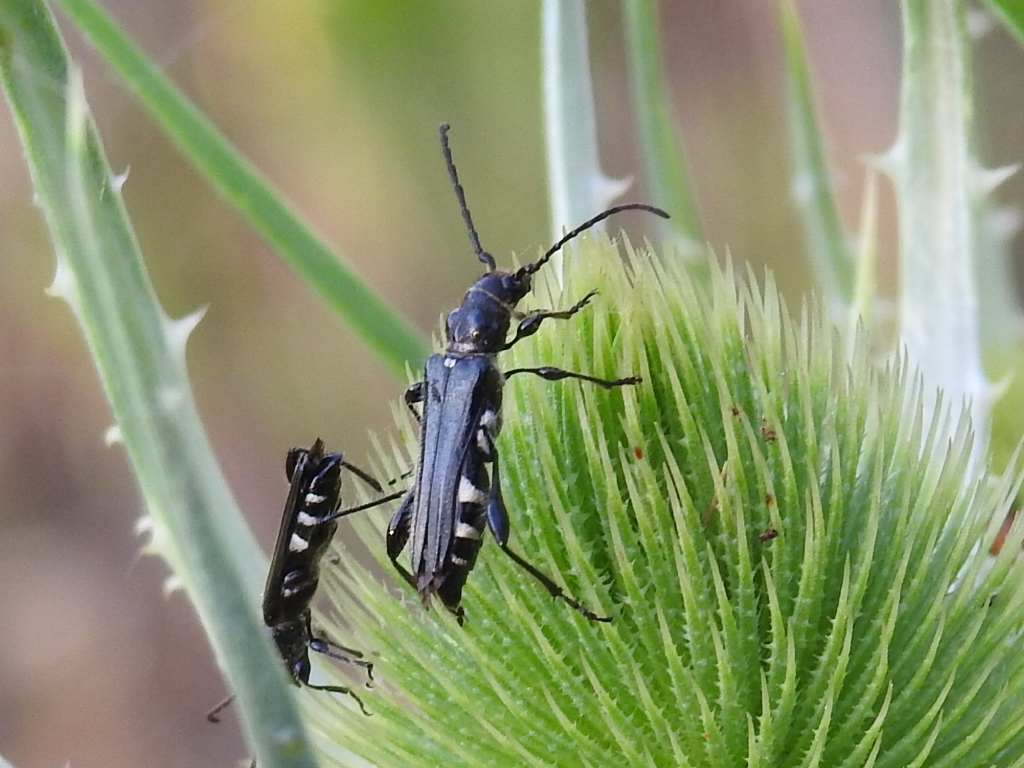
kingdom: Animalia
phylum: Arthropoda
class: Insecta
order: Coleoptera
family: Cerambycidae
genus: Stenopterus
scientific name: Stenopterus ater
